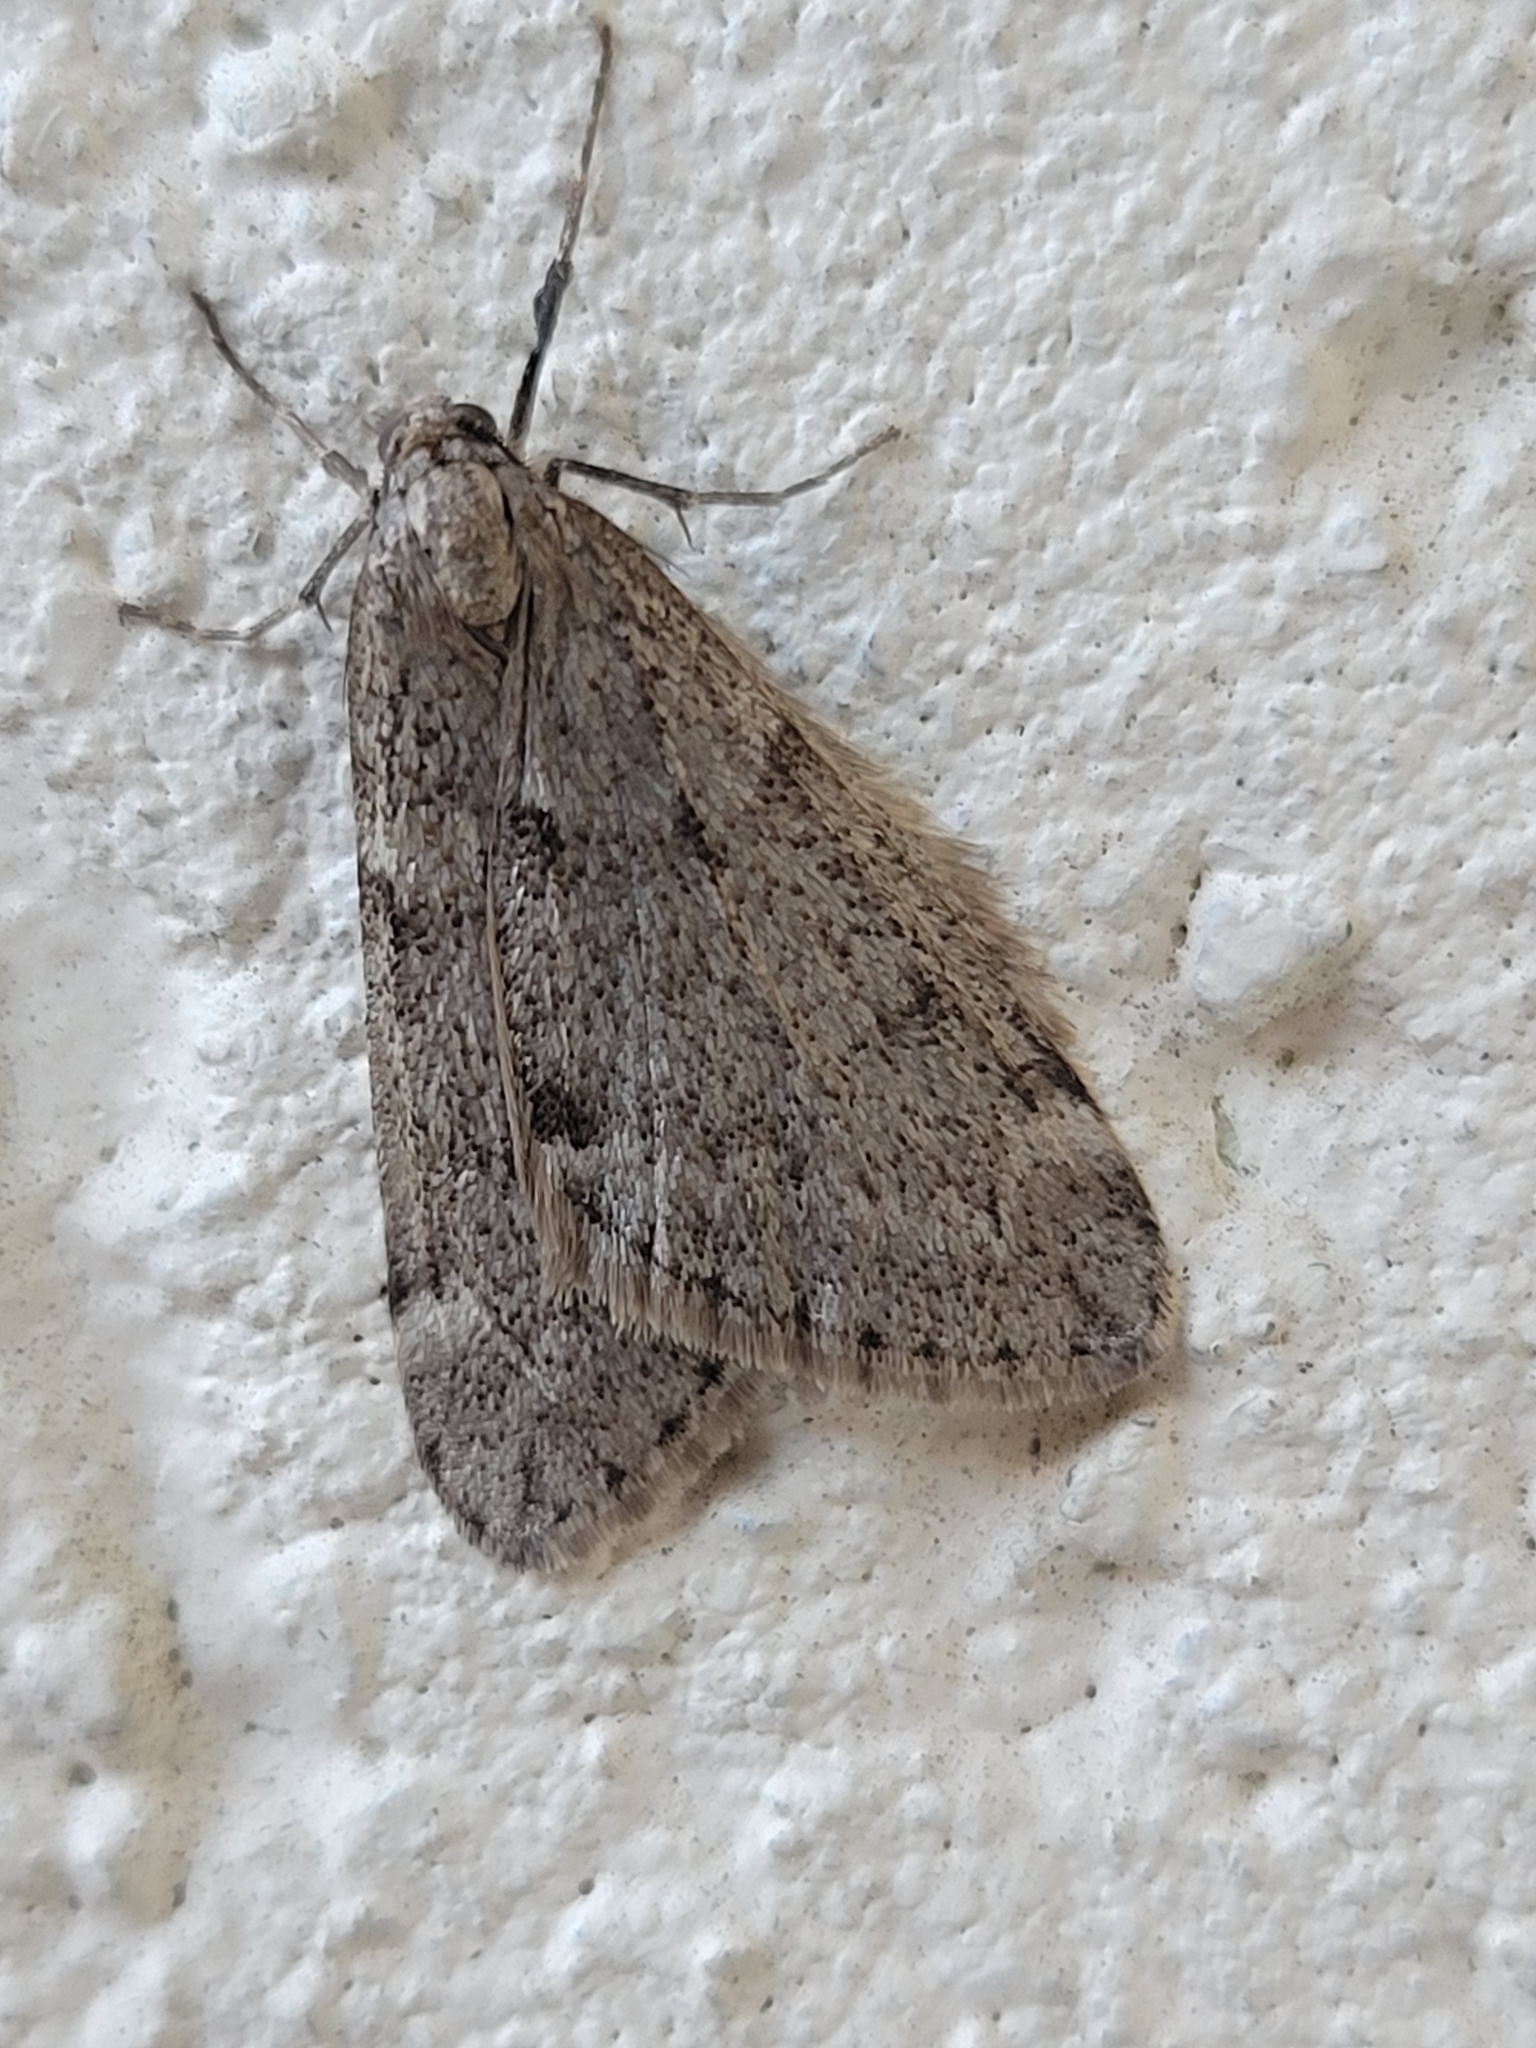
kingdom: Animalia
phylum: Arthropoda
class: Insecta
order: Lepidoptera
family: Geometridae
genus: Alsophila
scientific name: Alsophila pometaria
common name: Fall cankerworm
